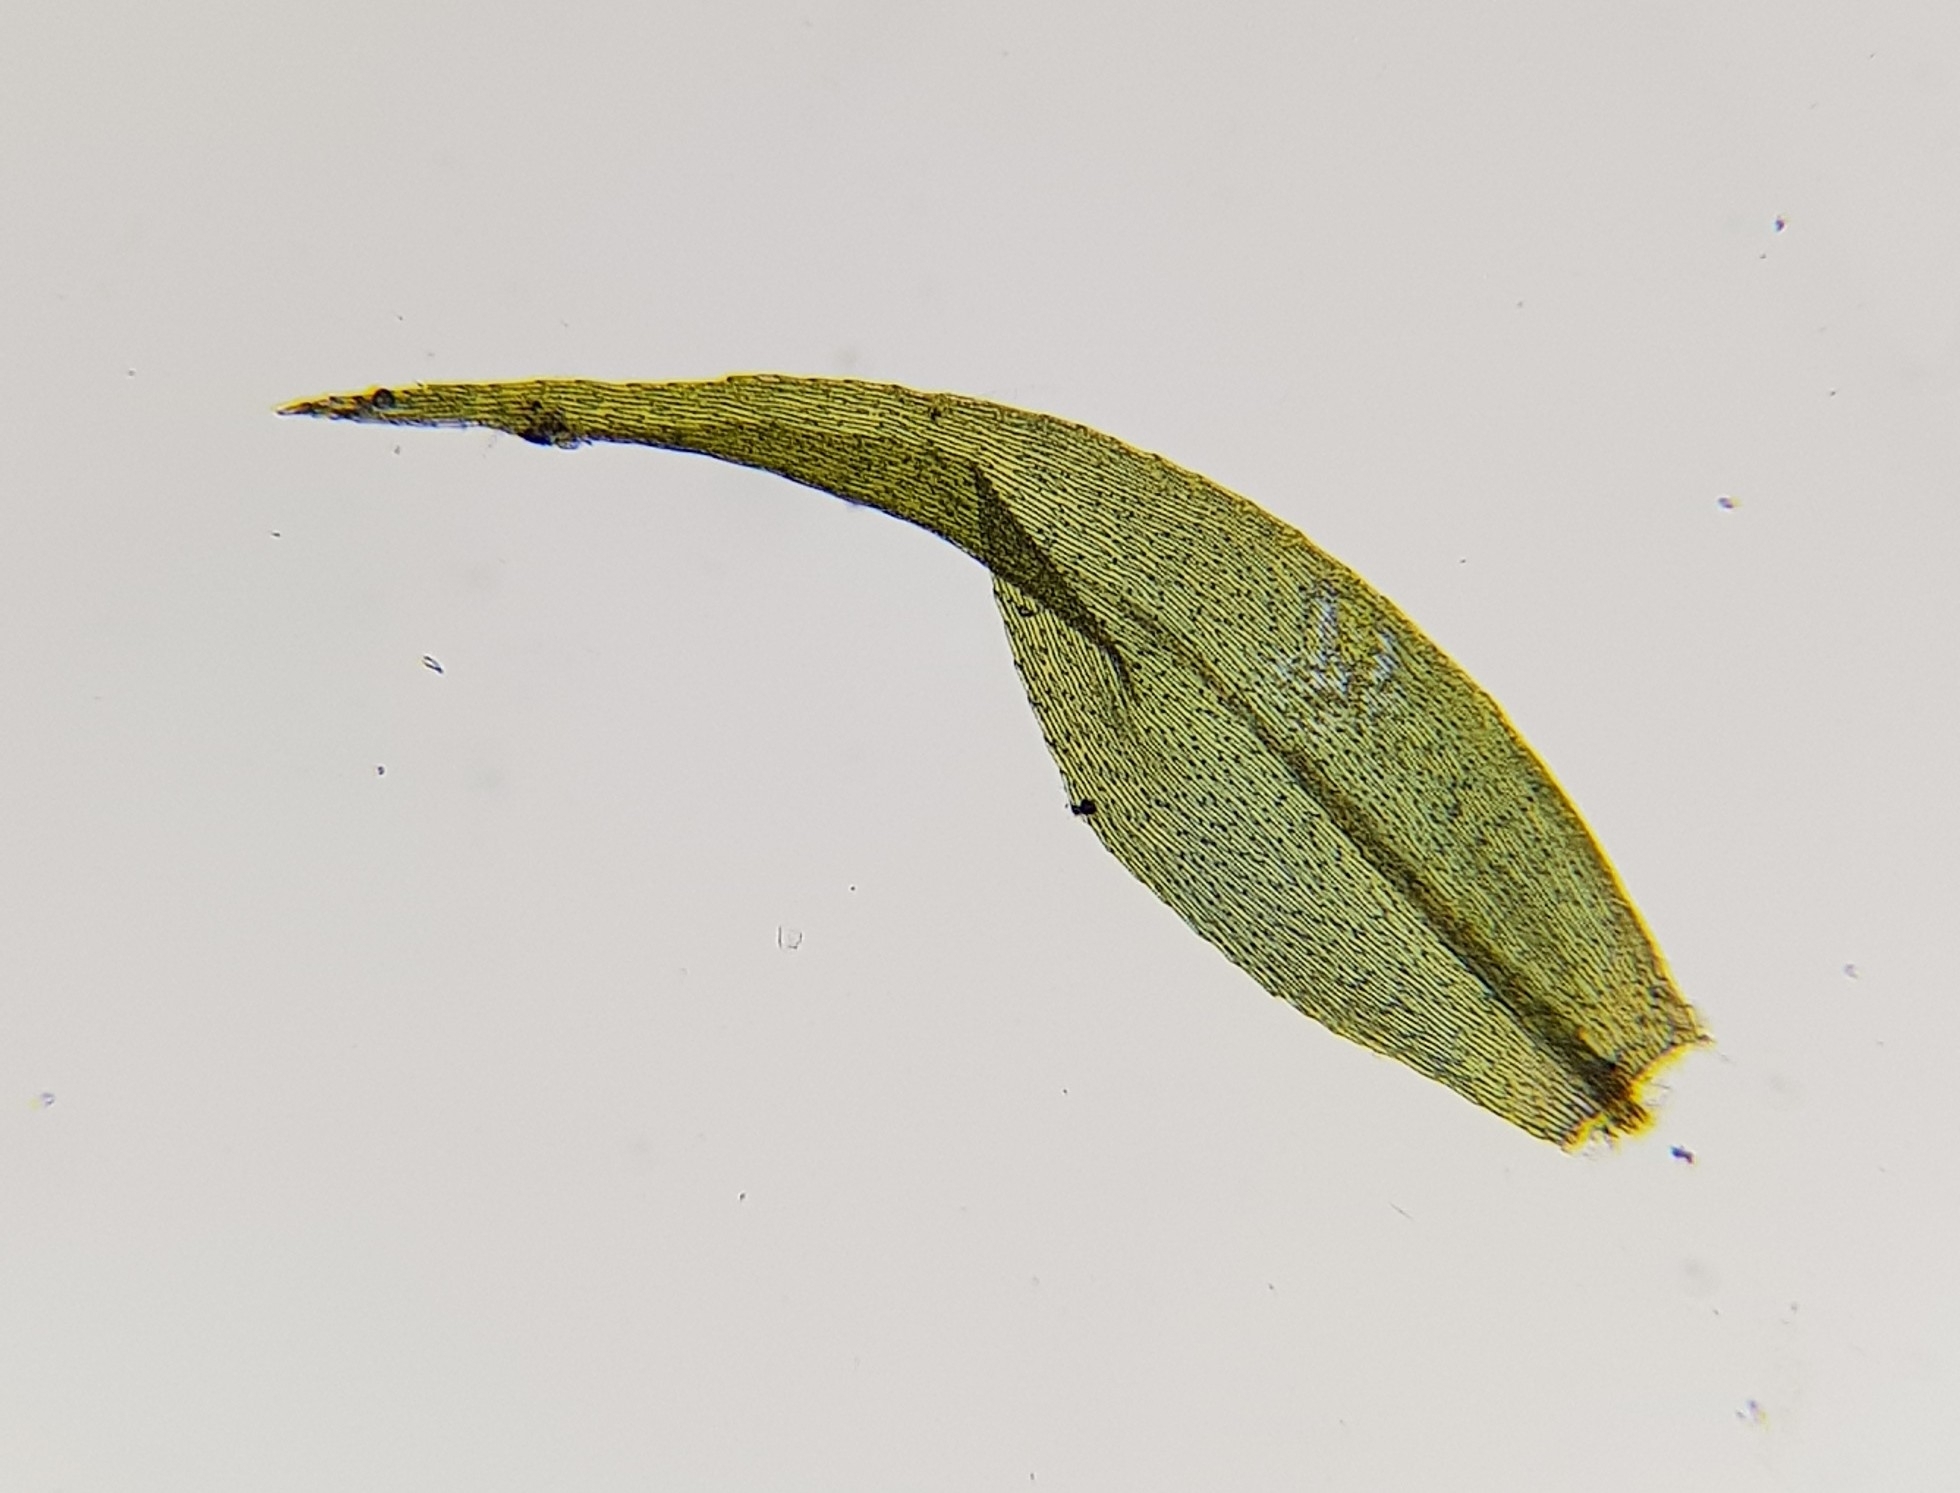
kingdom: Plantae
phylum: Bryophyta
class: Bryopsida
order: Hypnales
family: Calliergonaceae
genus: Warnstorfia
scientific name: Warnstorfia fluitans
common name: Floating hook moss
